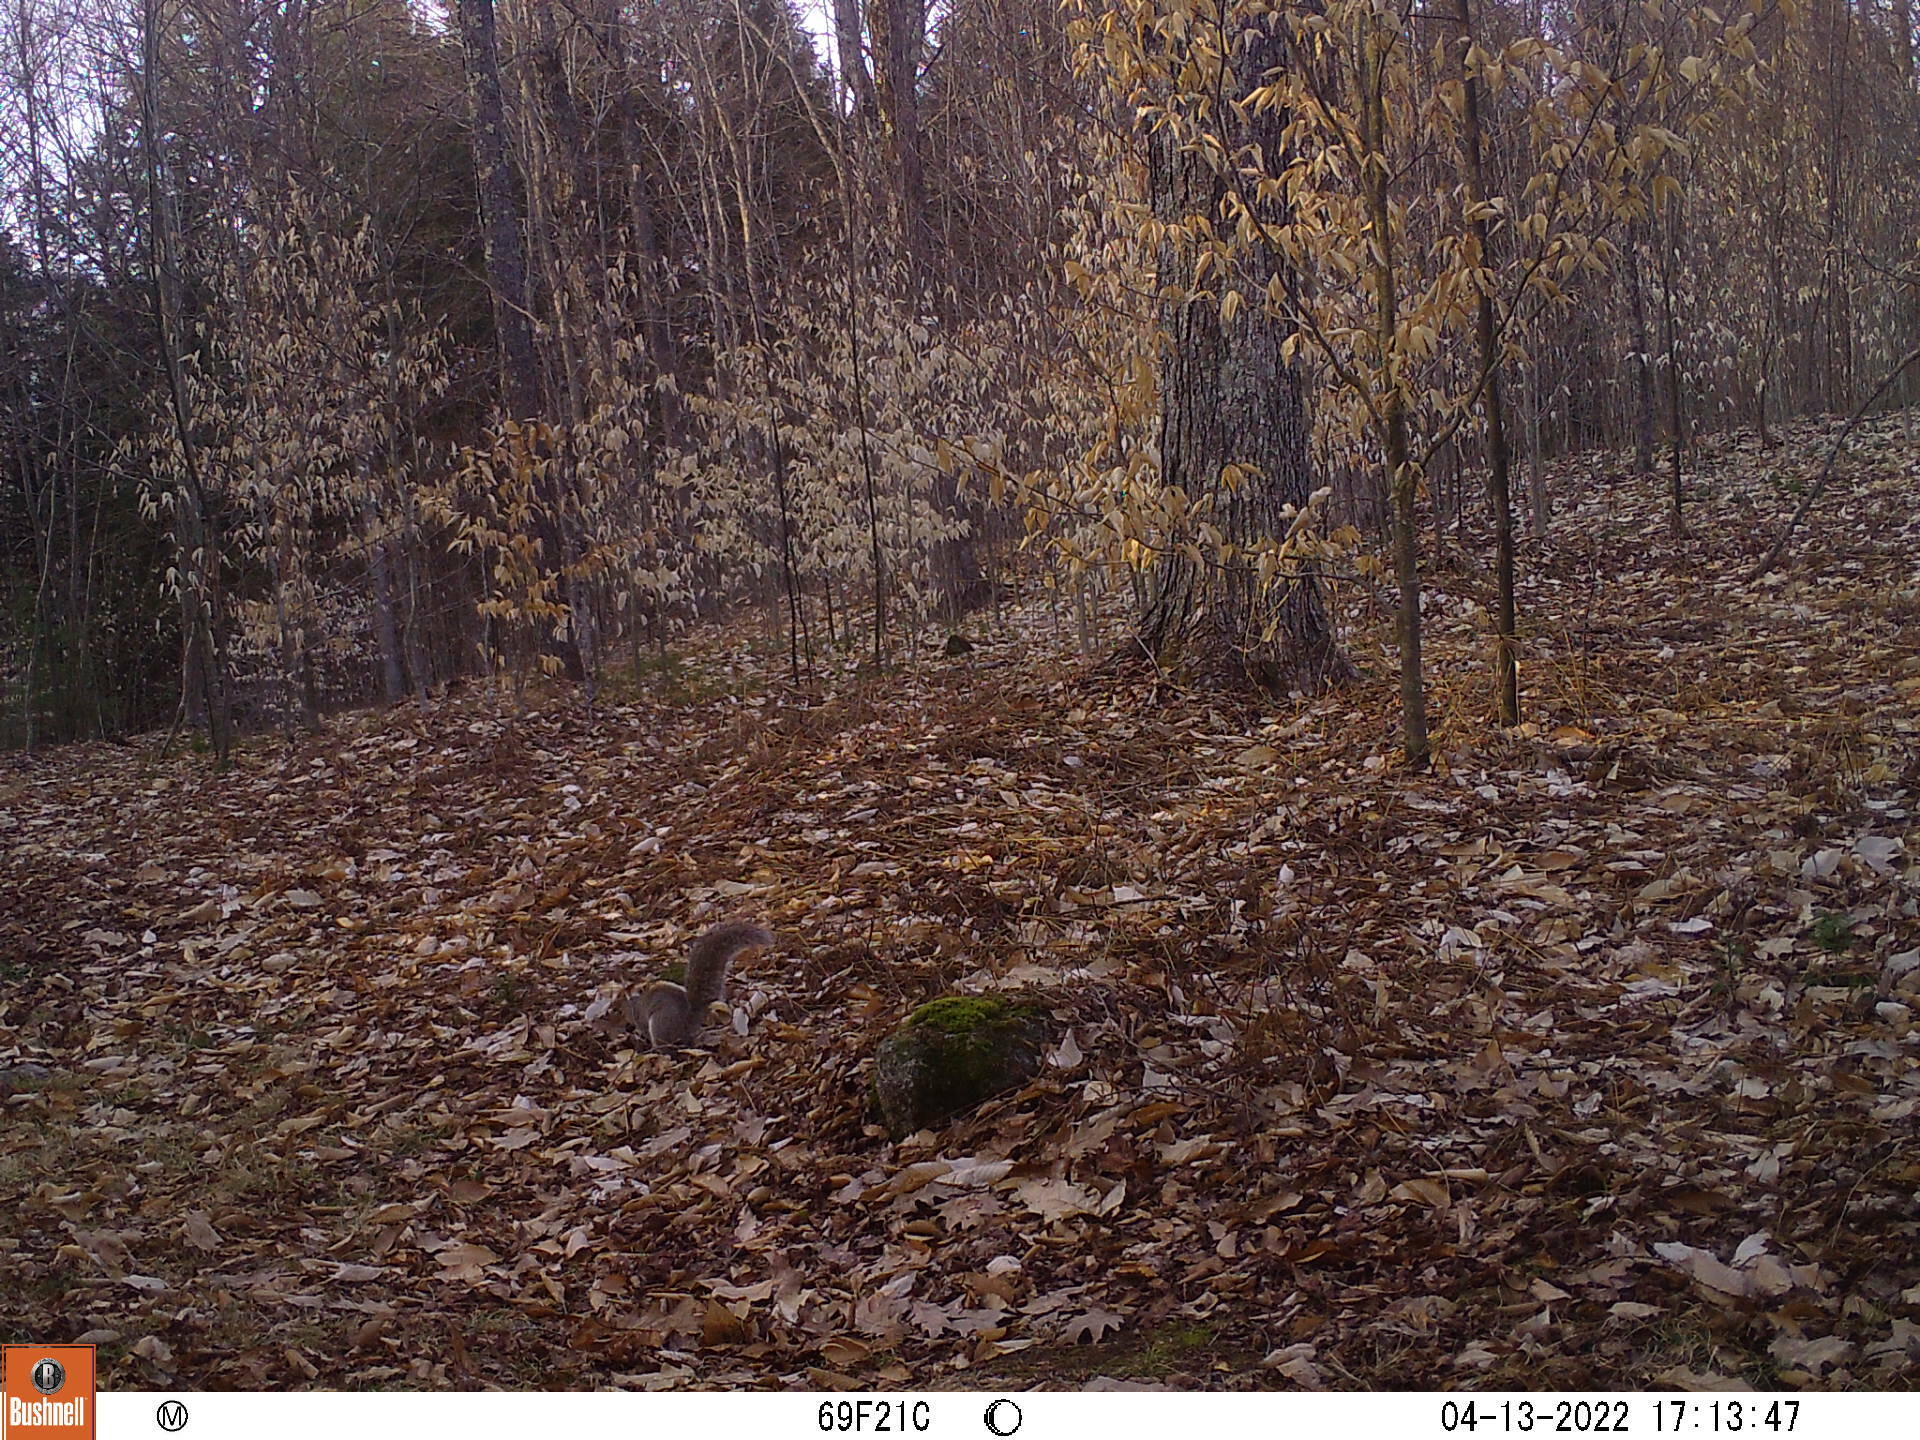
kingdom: Animalia
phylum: Chordata
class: Mammalia
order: Rodentia
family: Sciuridae
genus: Sciurus
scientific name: Sciurus carolinensis
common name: Eastern gray squirrel
